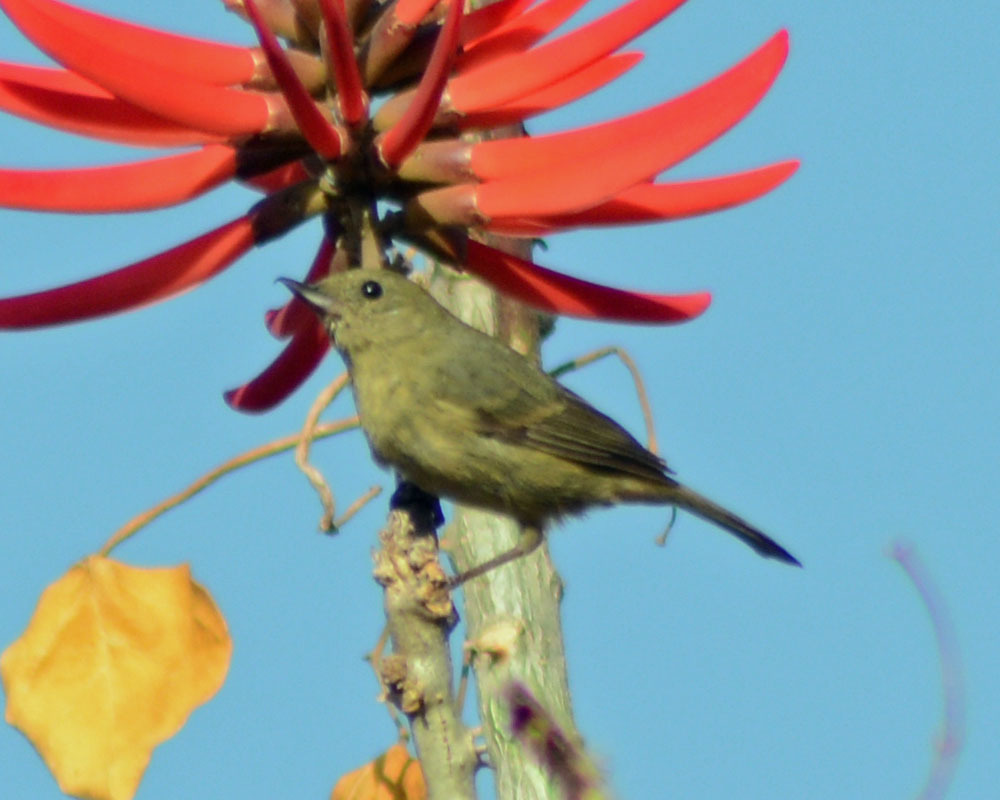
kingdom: Animalia
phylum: Chordata
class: Aves
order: Passeriformes
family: Thraupidae
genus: Diglossa
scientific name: Diglossa baritula
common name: Cinnamon-bellied flowerpiercer
